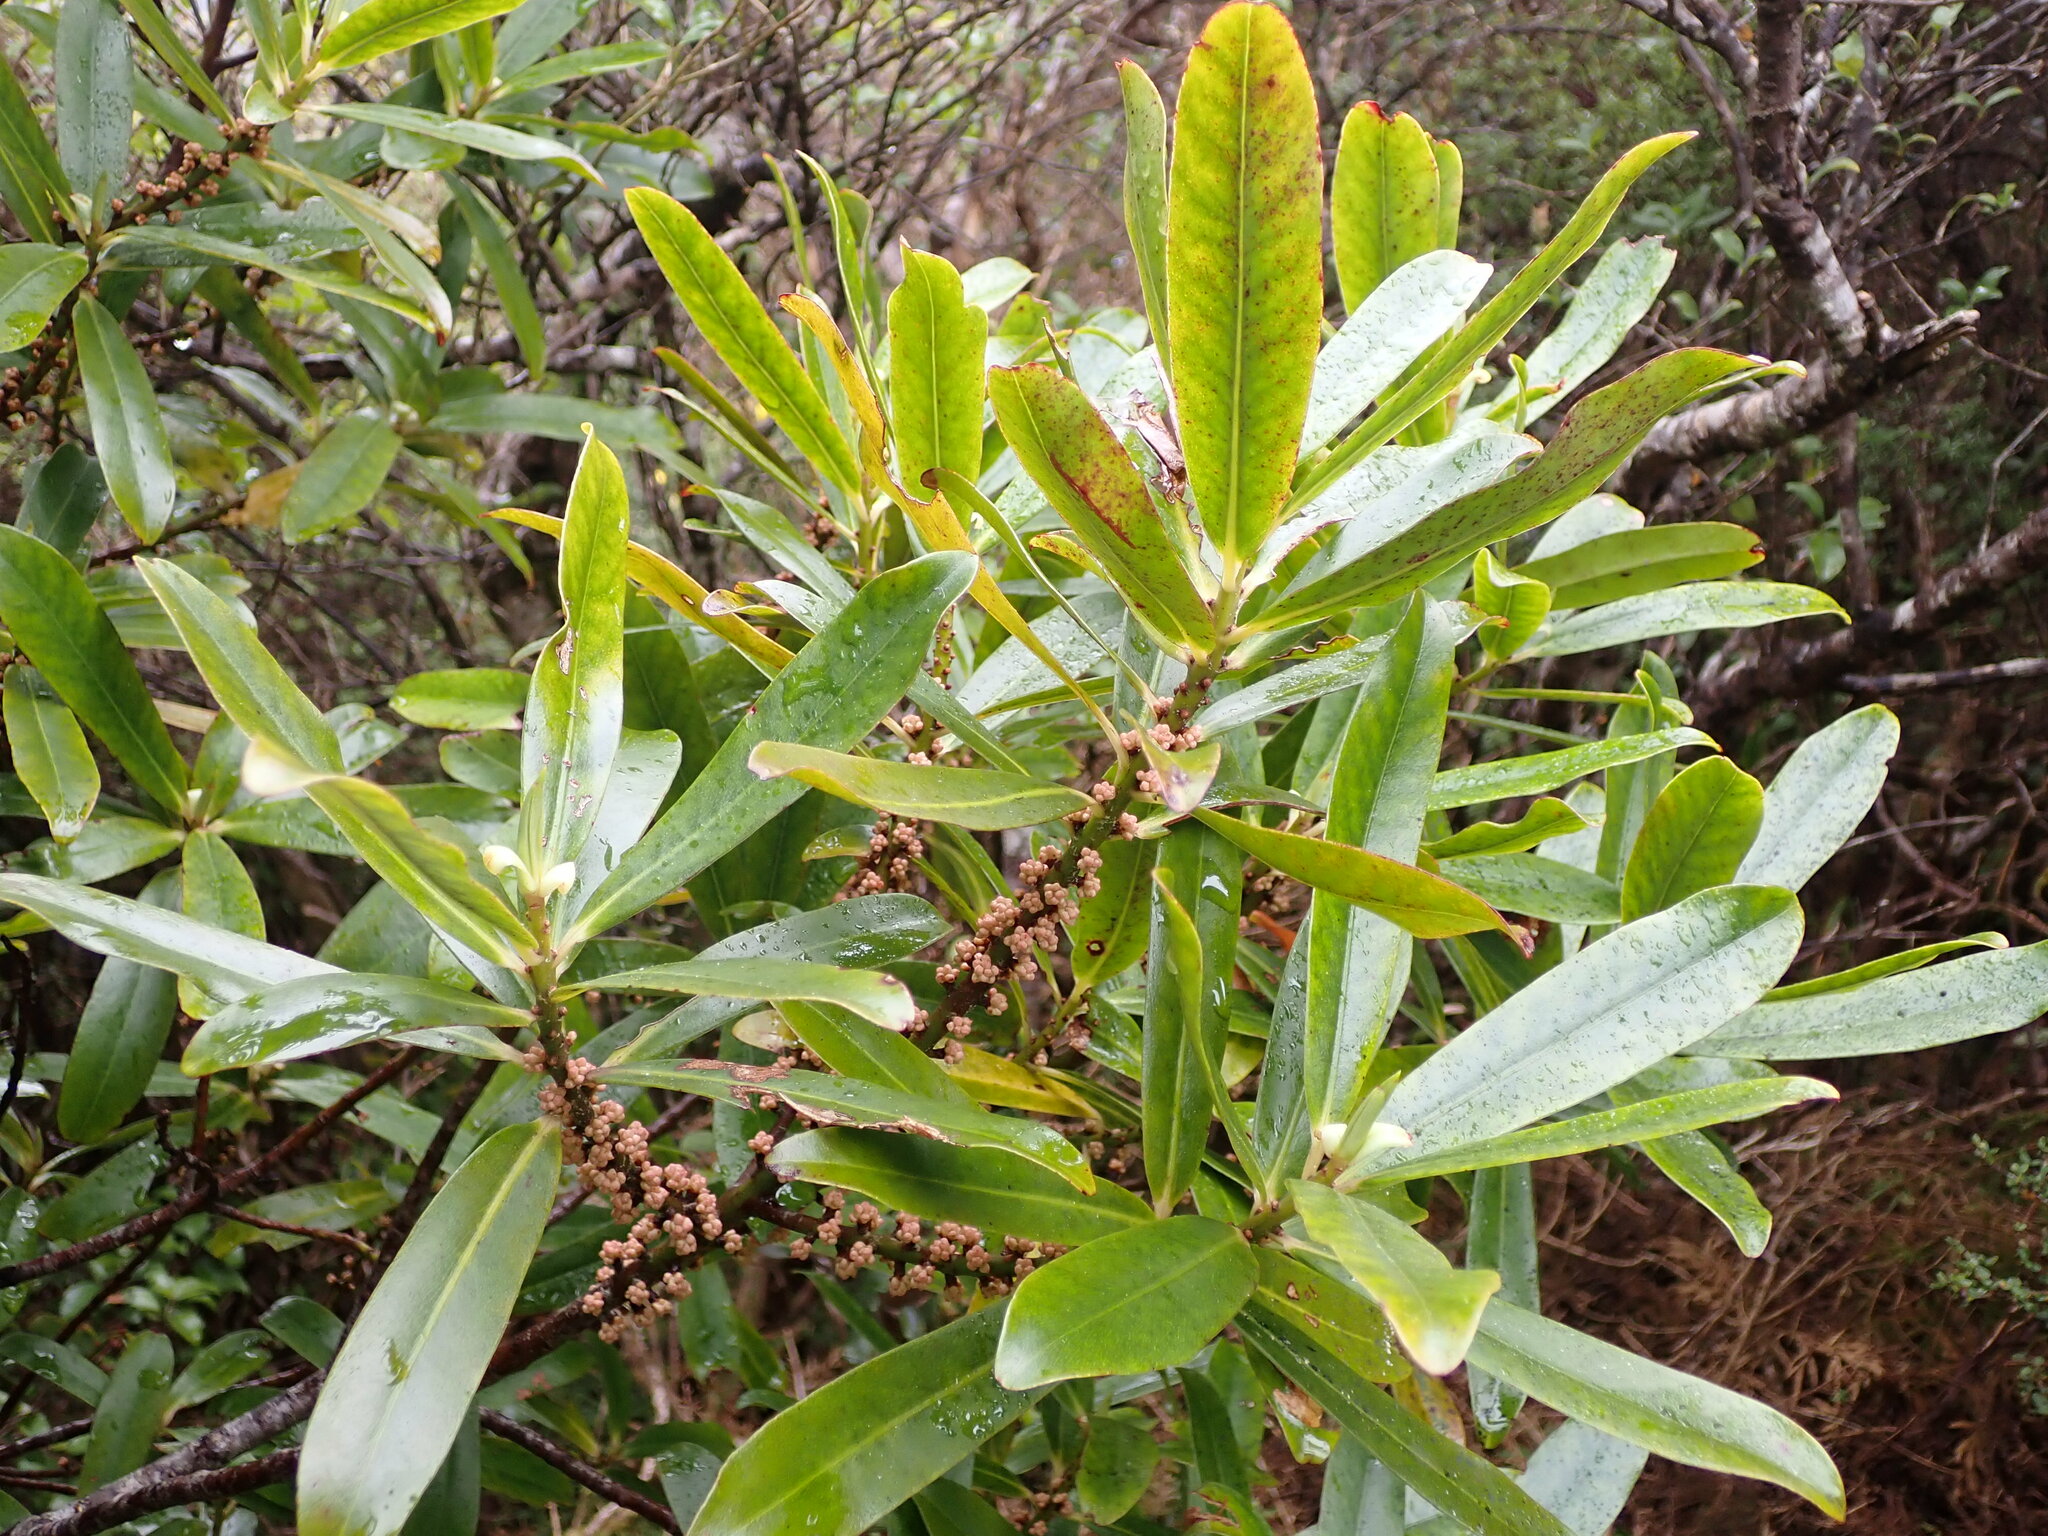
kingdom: Plantae
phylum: Tracheophyta
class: Magnoliopsida
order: Ericales
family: Primulaceae
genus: Myrsine
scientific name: Myrsine salicina
